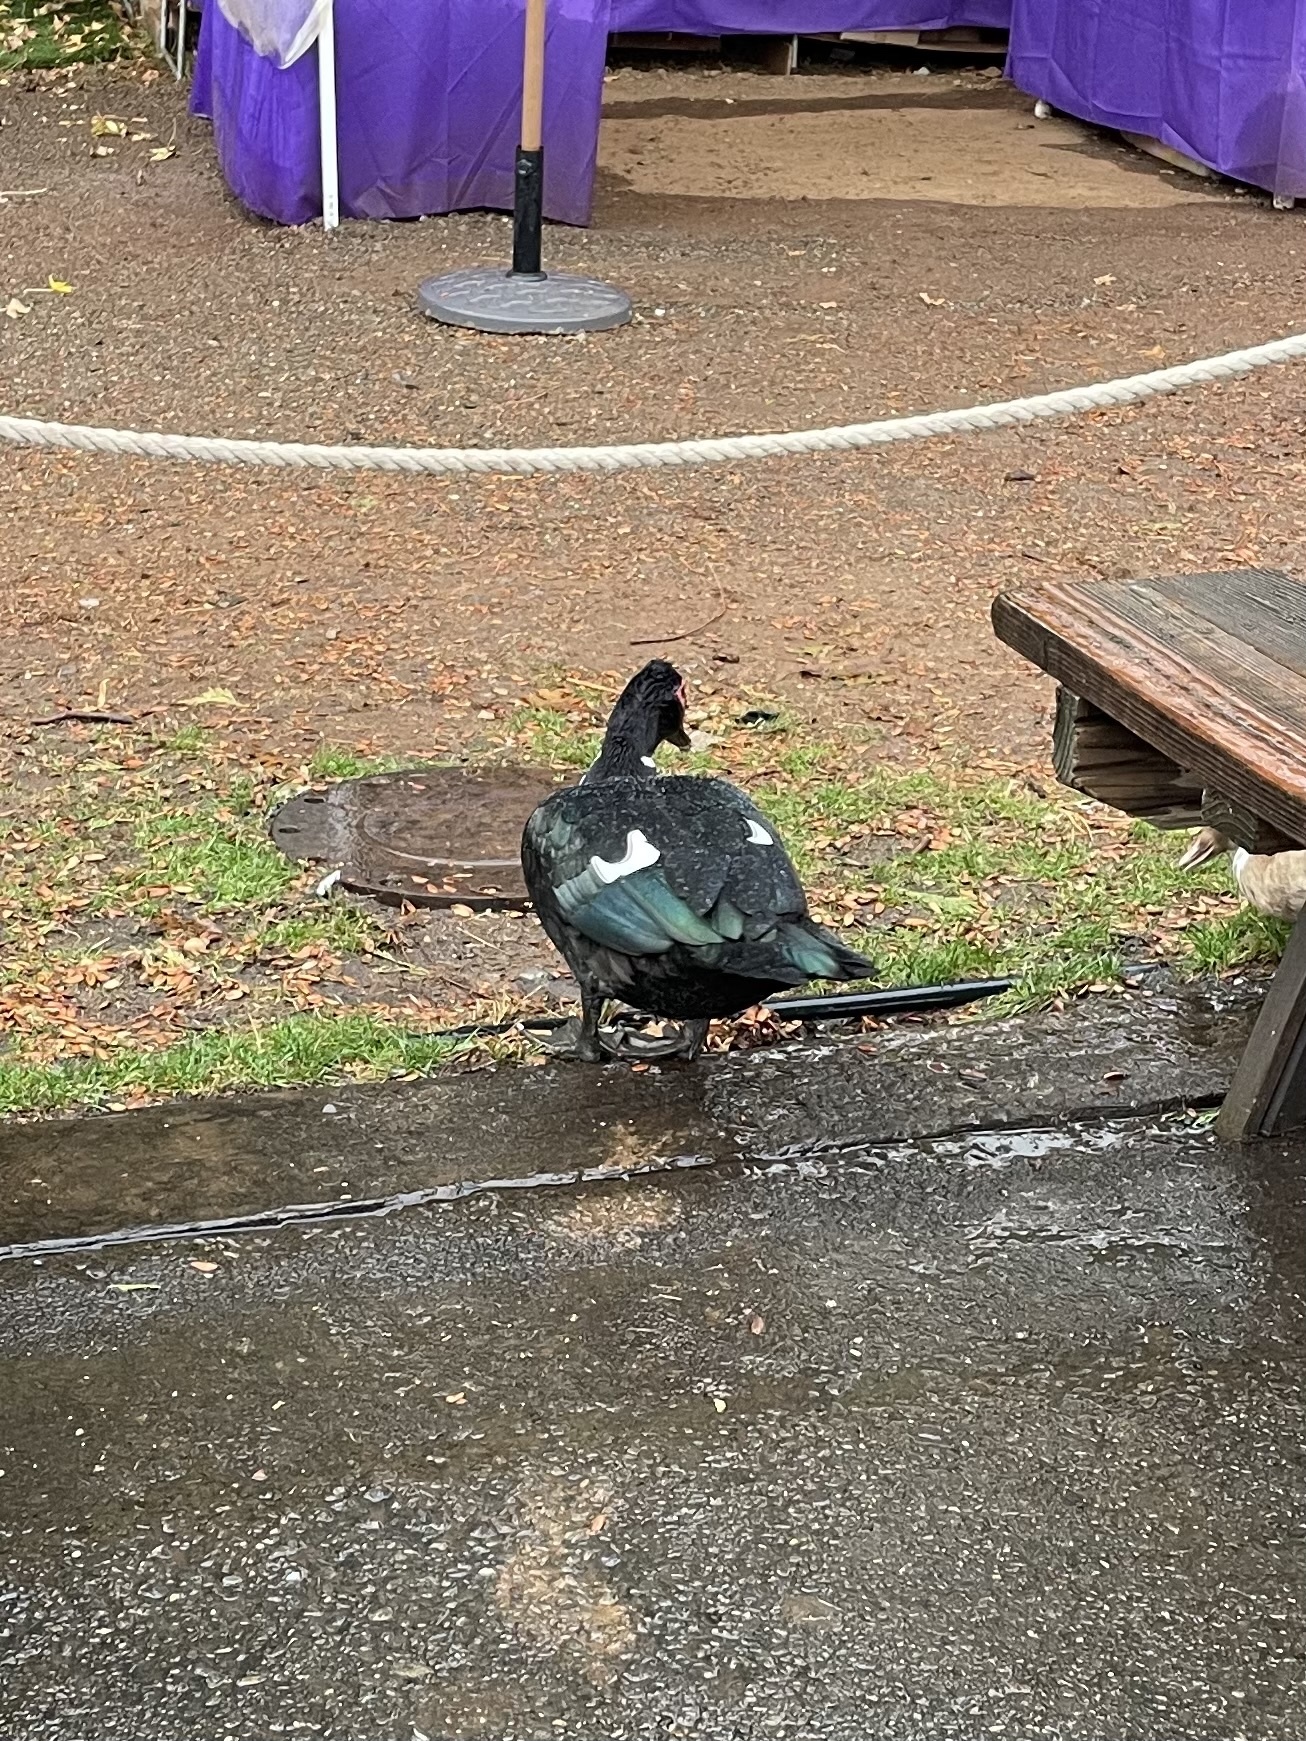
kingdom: Animalia
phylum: Chordata
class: Aves
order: Anseriformes
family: Anatidae
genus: Cairina
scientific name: Cairina moschata
